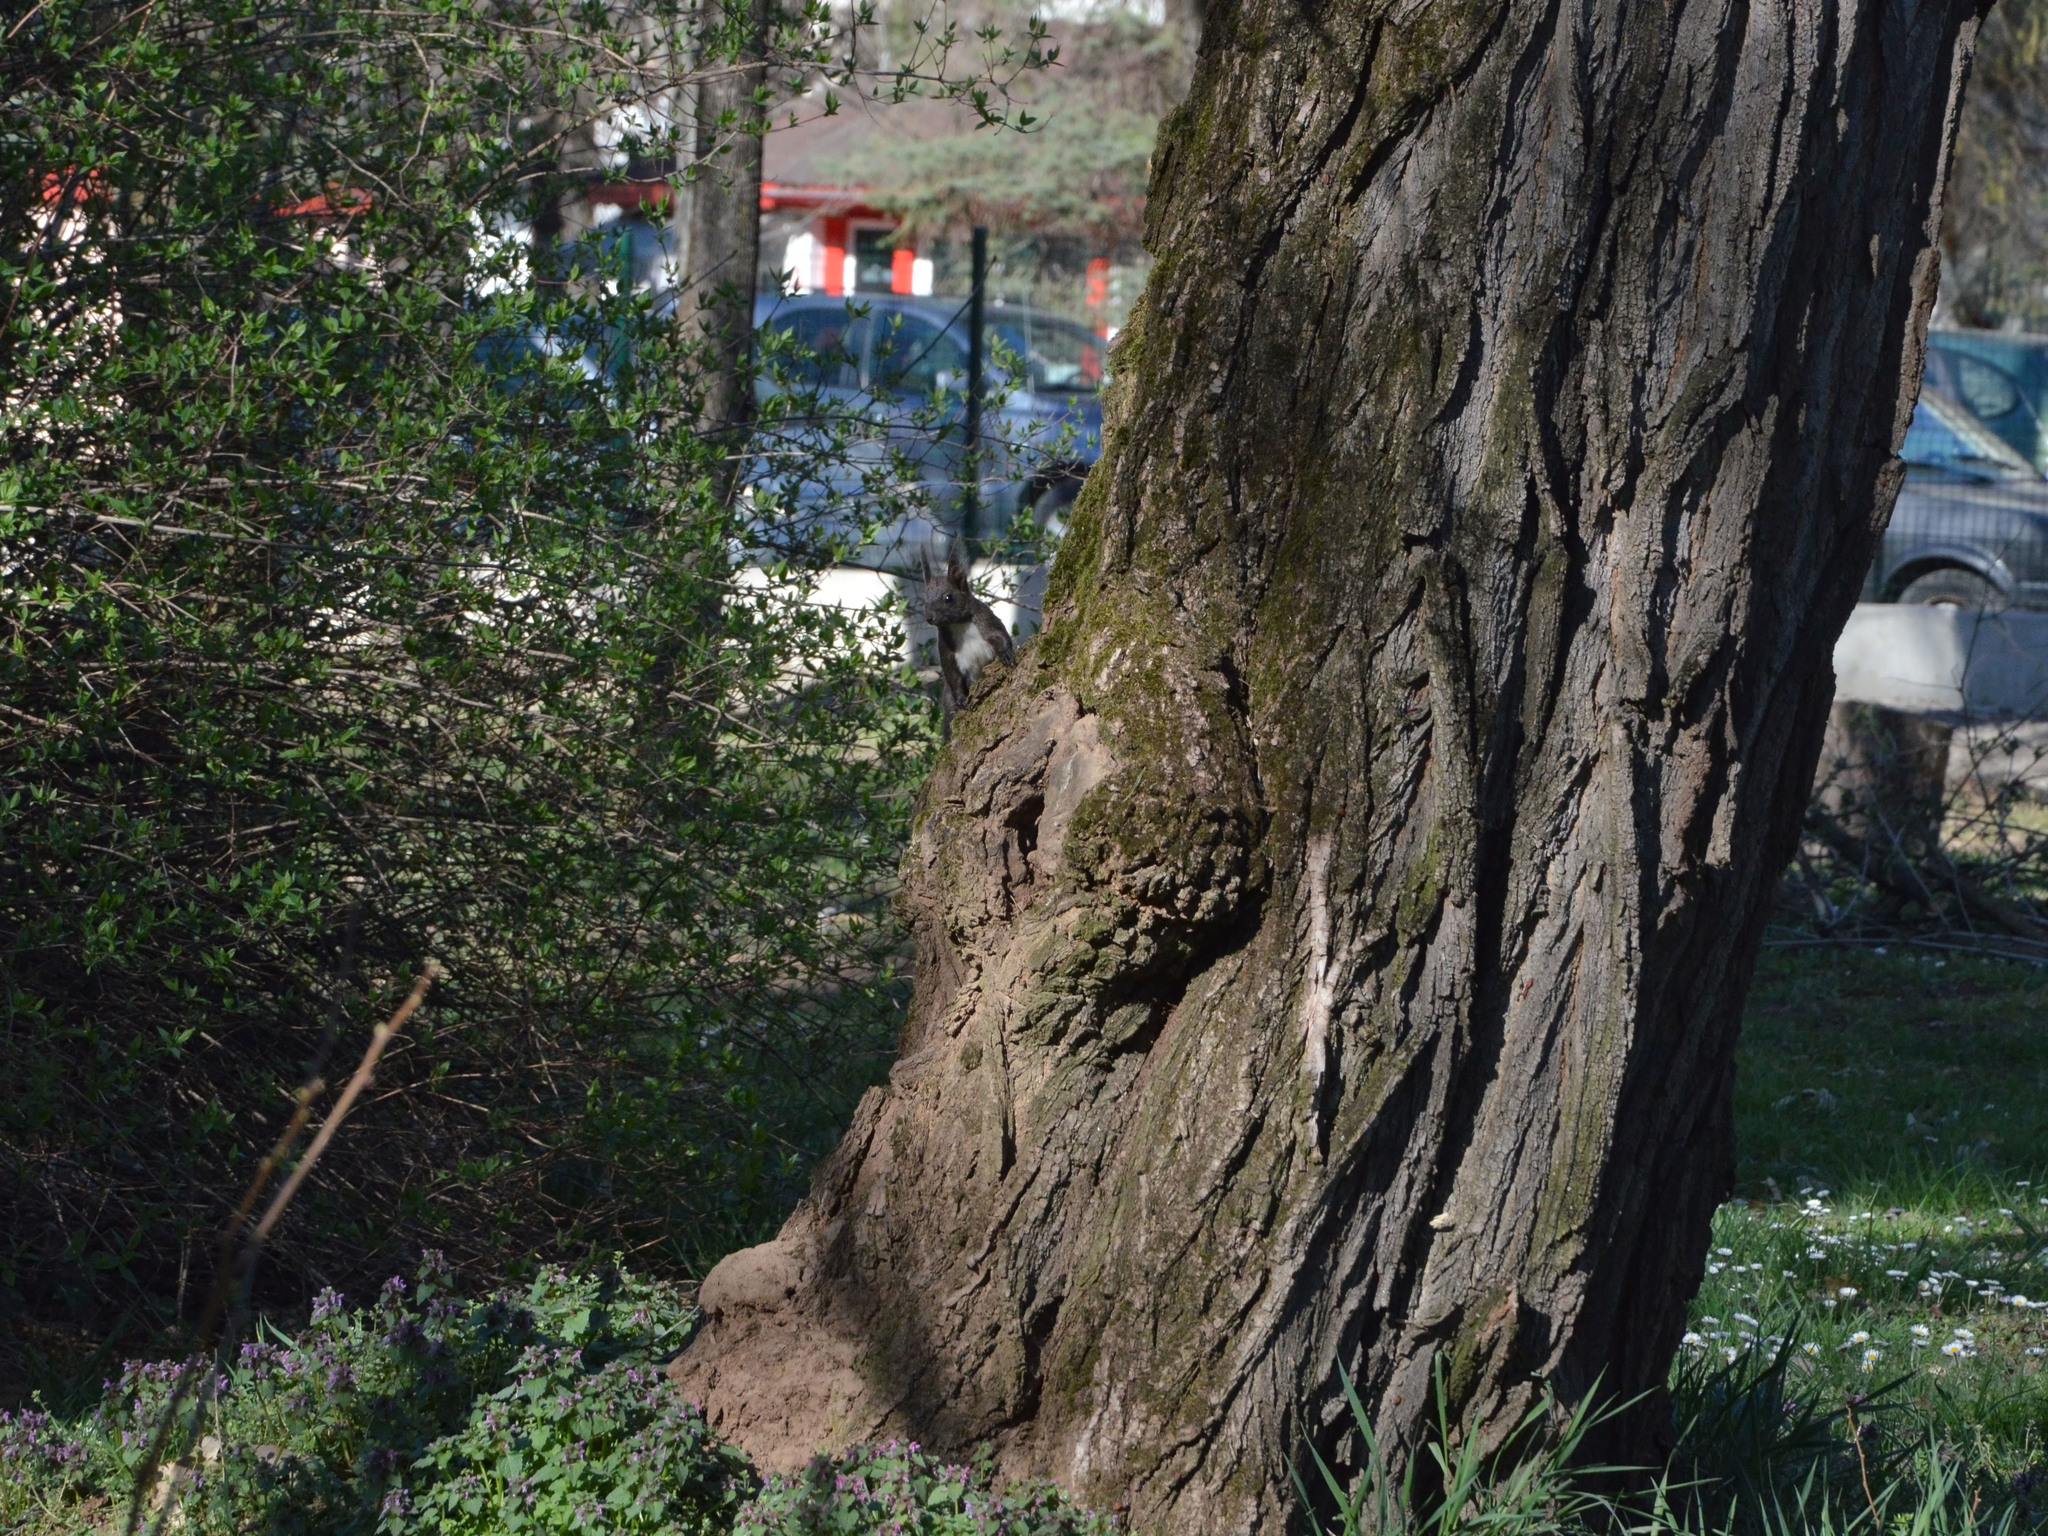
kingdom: Animalia
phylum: Chordata
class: Mammalia
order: Rodentia
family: Sciuridae
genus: Sciurus
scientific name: Sciurus vulgaris
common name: Eurasian red squirrel
